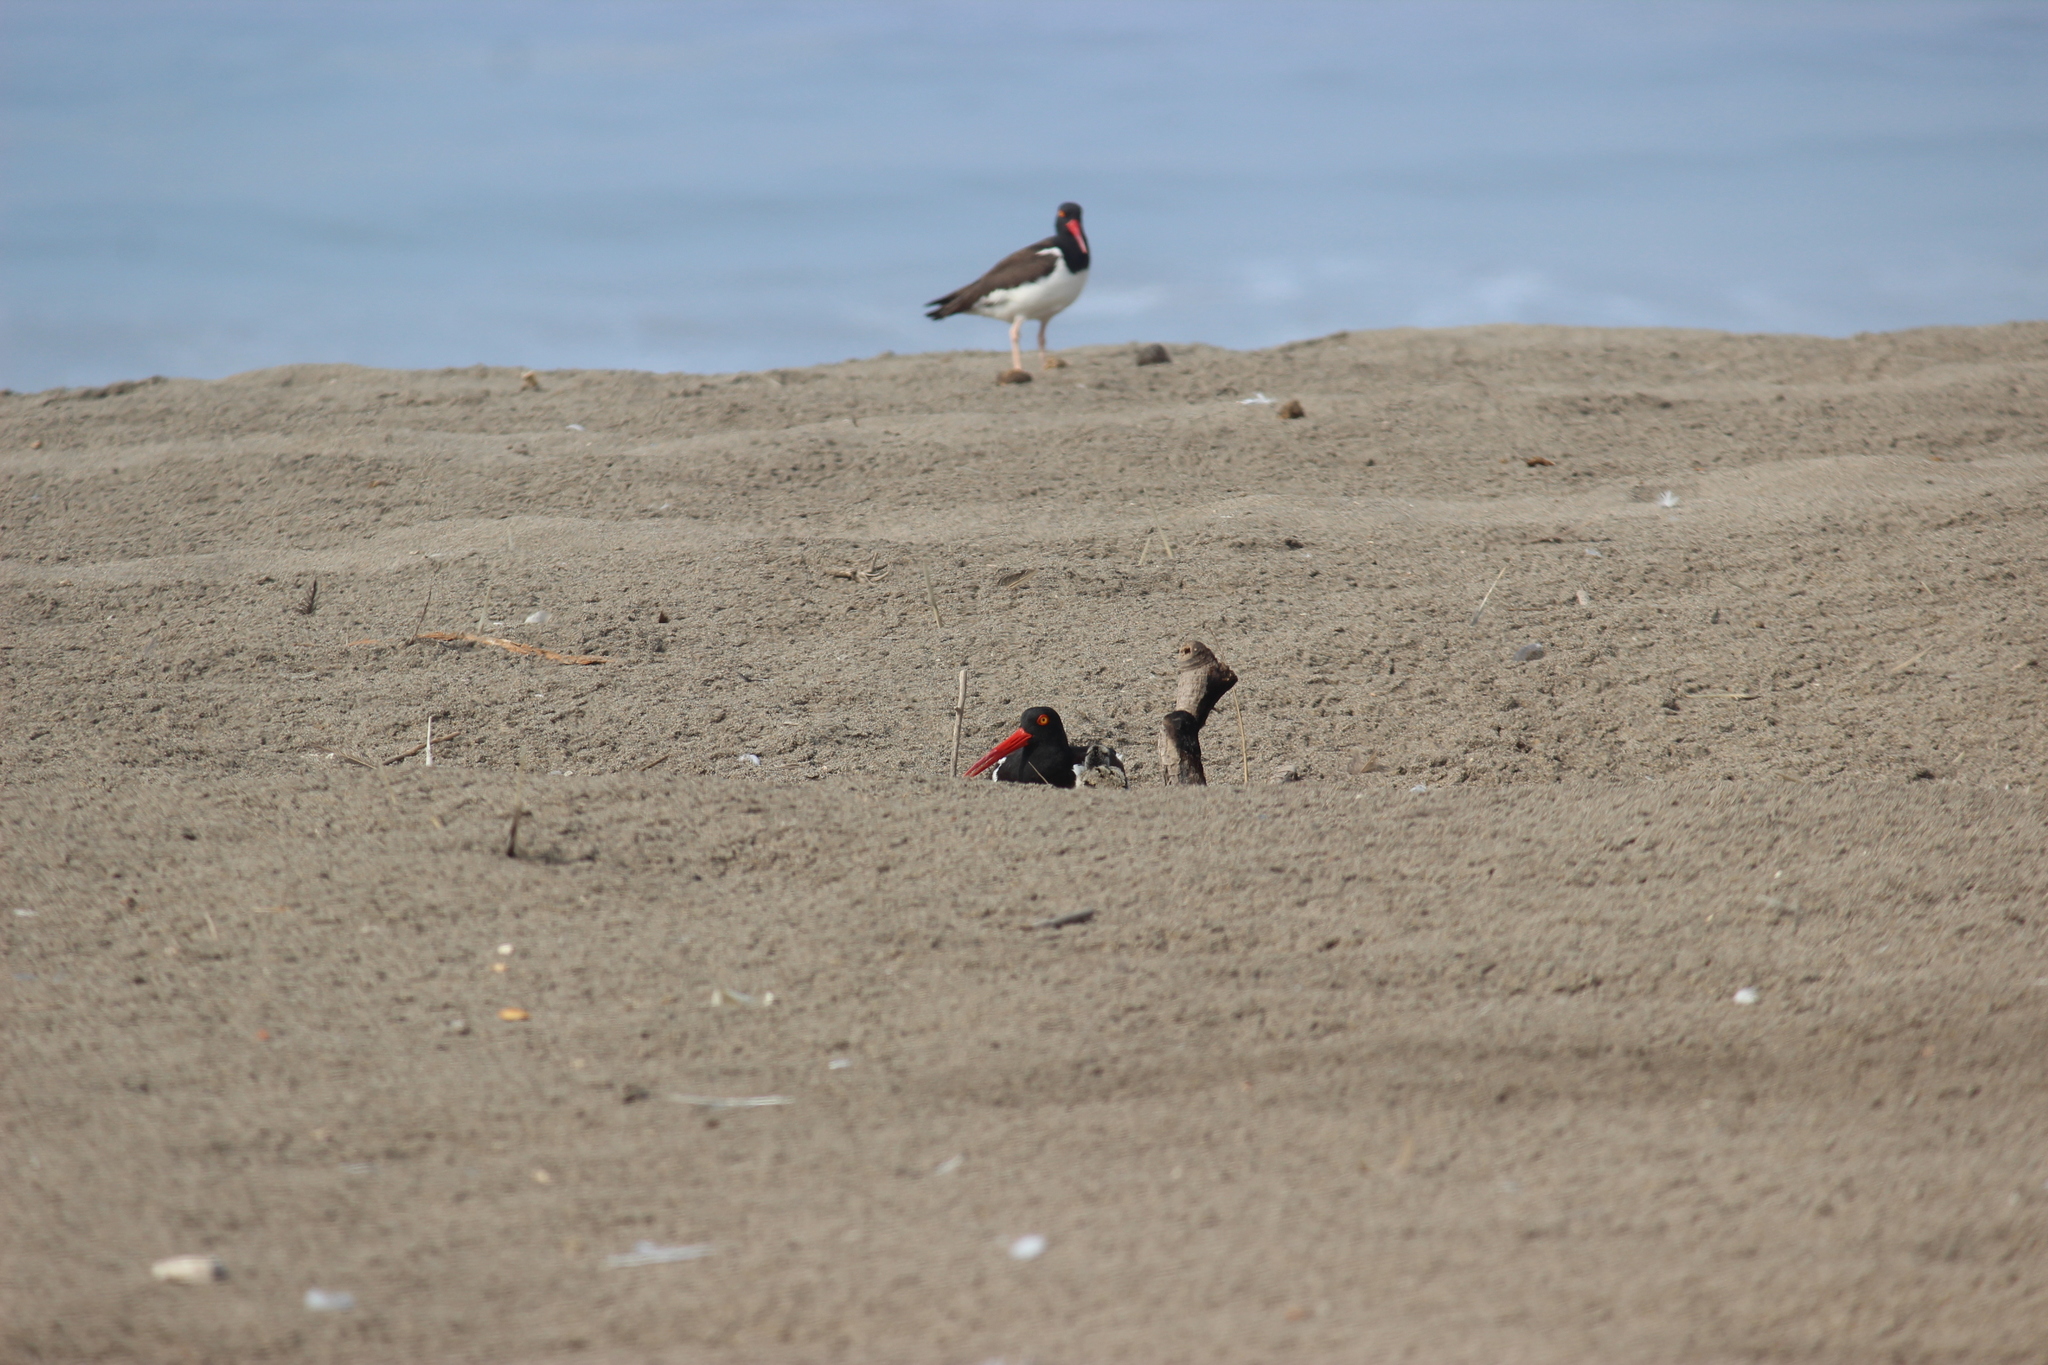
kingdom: Animalia
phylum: Chordata
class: Aves
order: Charadriiformes
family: Haematopodidae
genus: Haematopus
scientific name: Haematopus palliatus
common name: American oystercatcher
